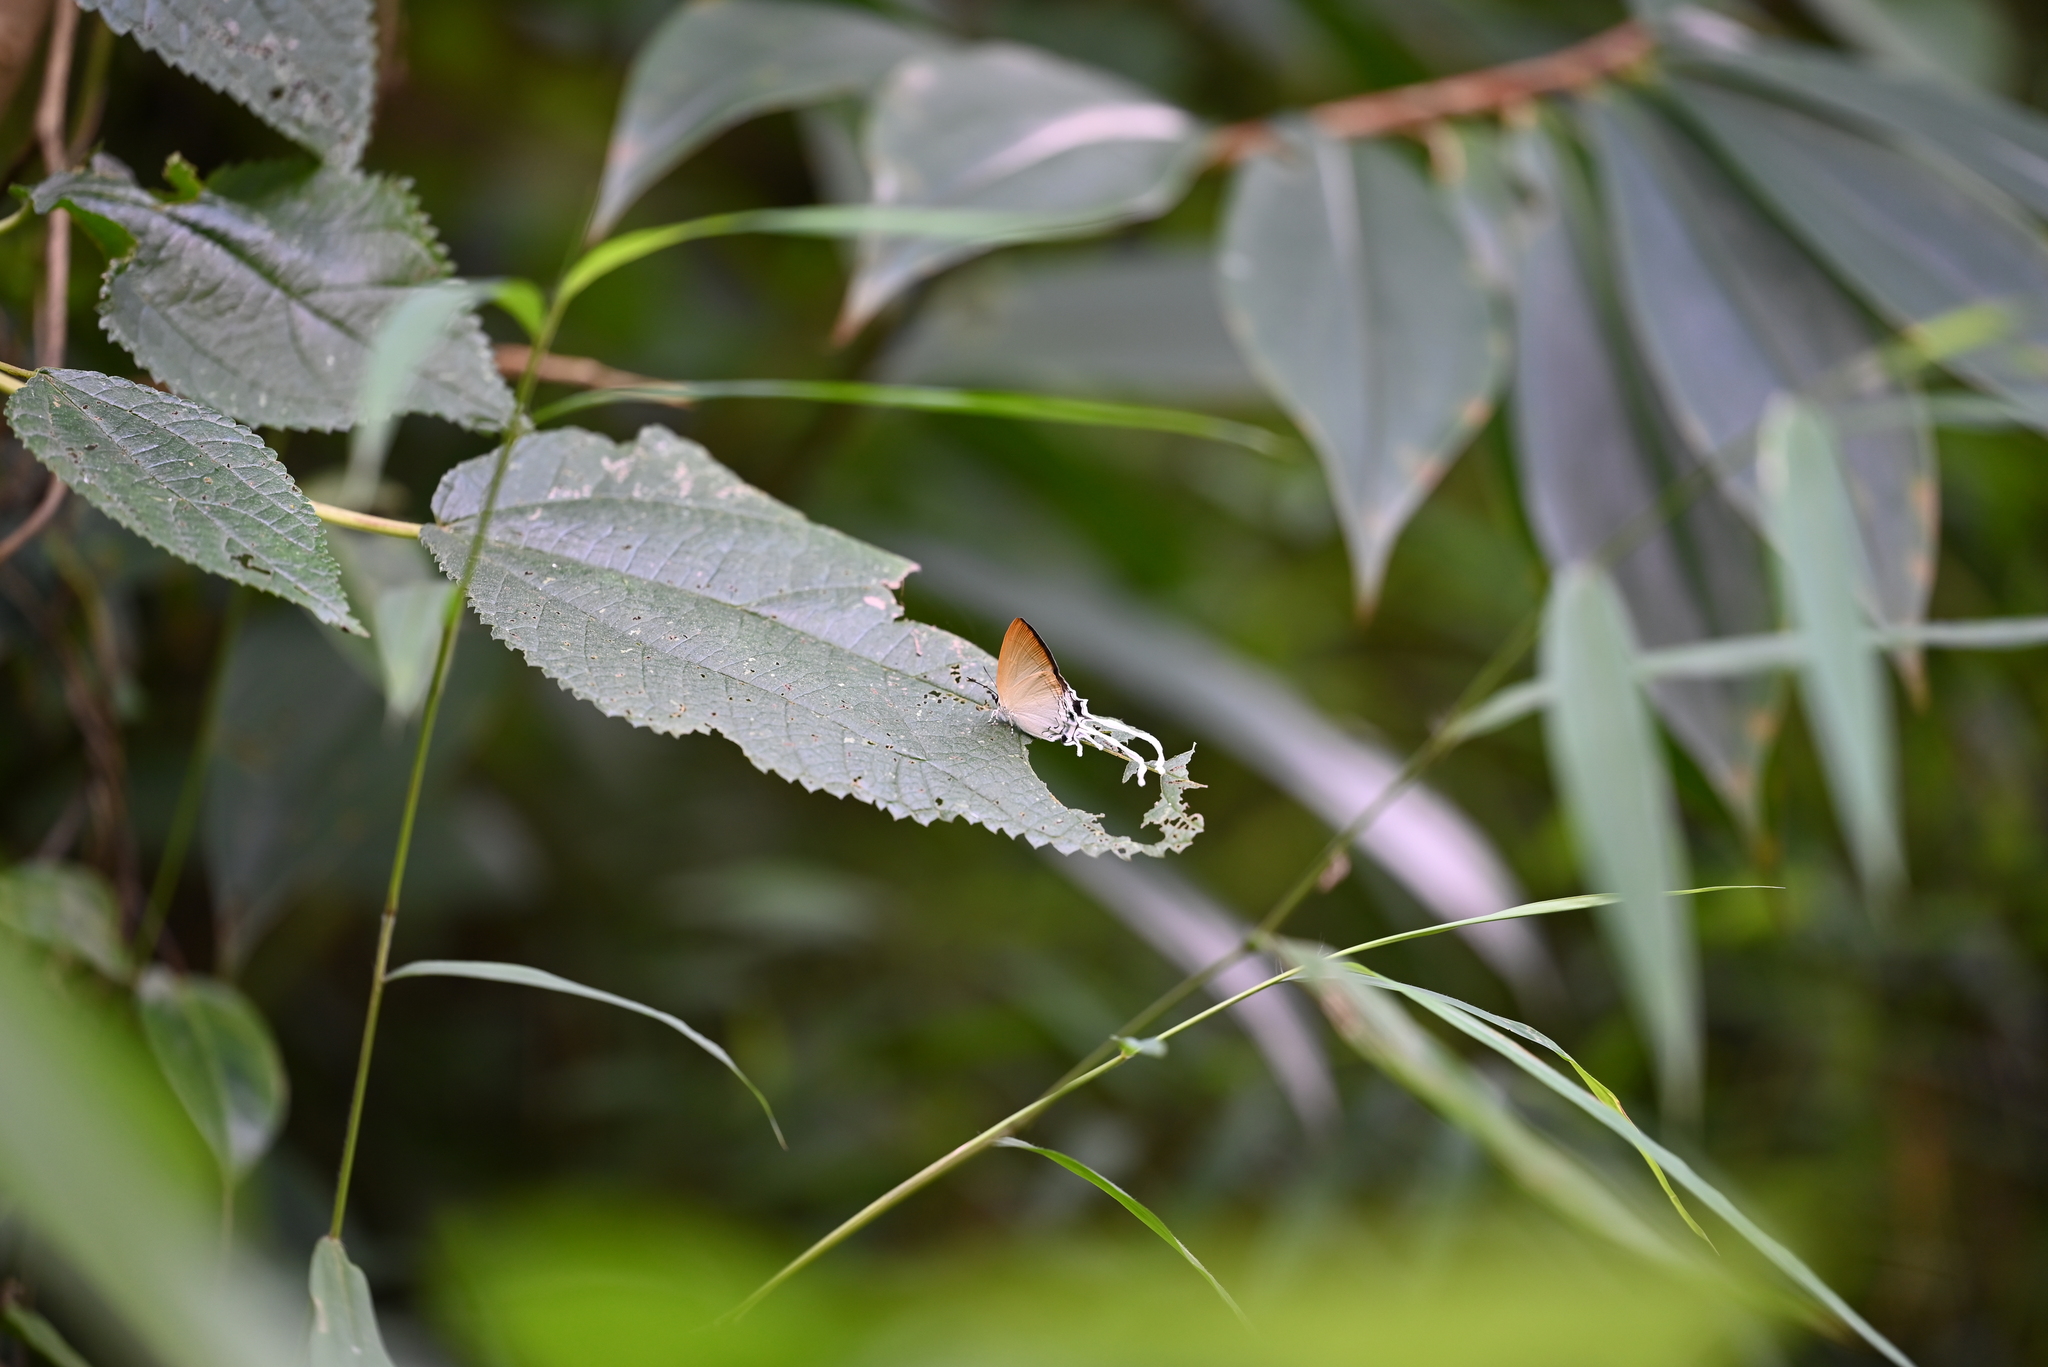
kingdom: Animalia
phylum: Arthropoda
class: Insecta
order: Lepidoptera
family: Lycaenidae
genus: Cheritra
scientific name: Cheritra freja
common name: Common imperial
